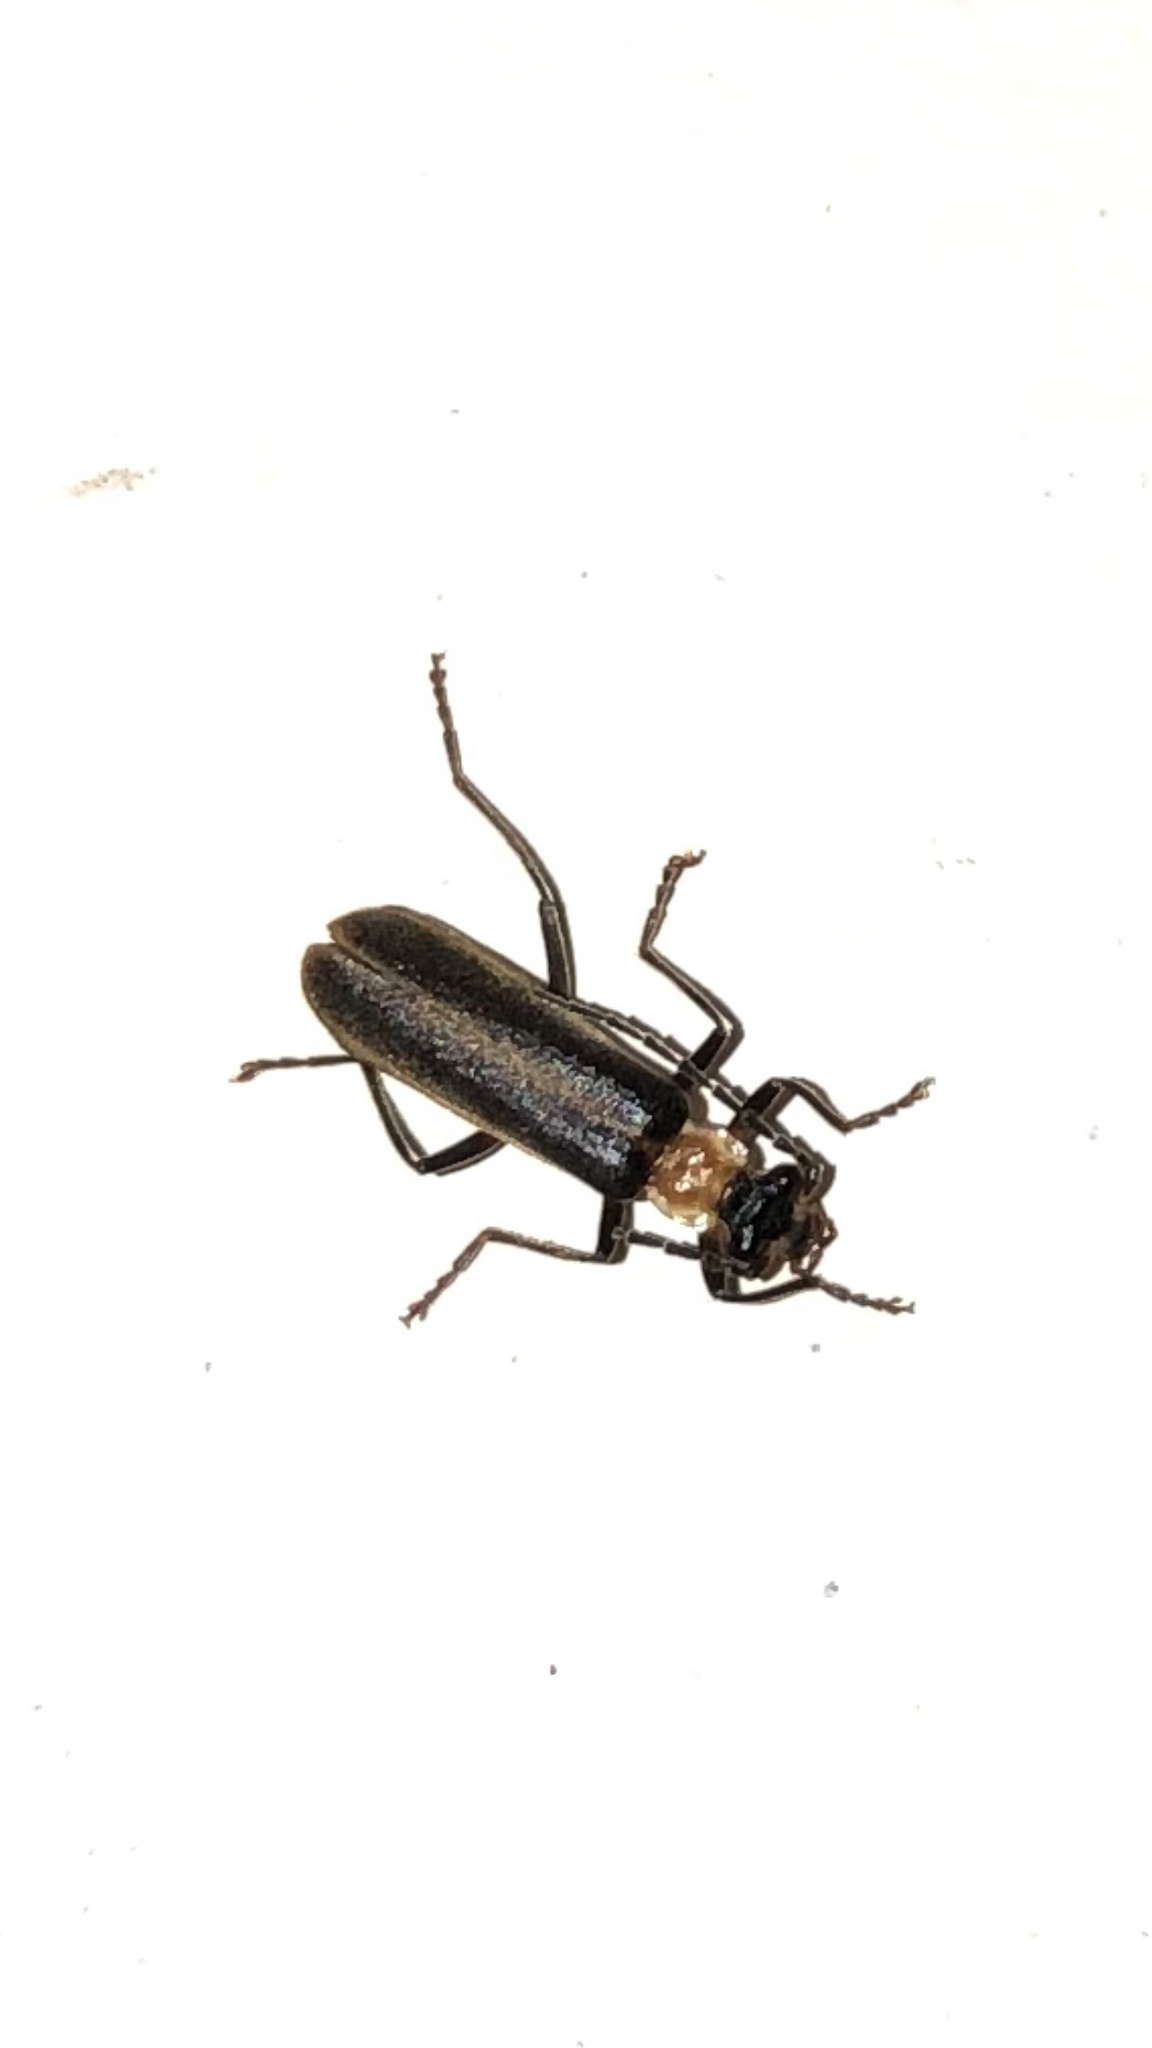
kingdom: Animalia
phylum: Arthropoda
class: Insecta
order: Coleoptera
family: Cantharidae
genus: Podabrus
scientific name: Podabrus flavicollis
